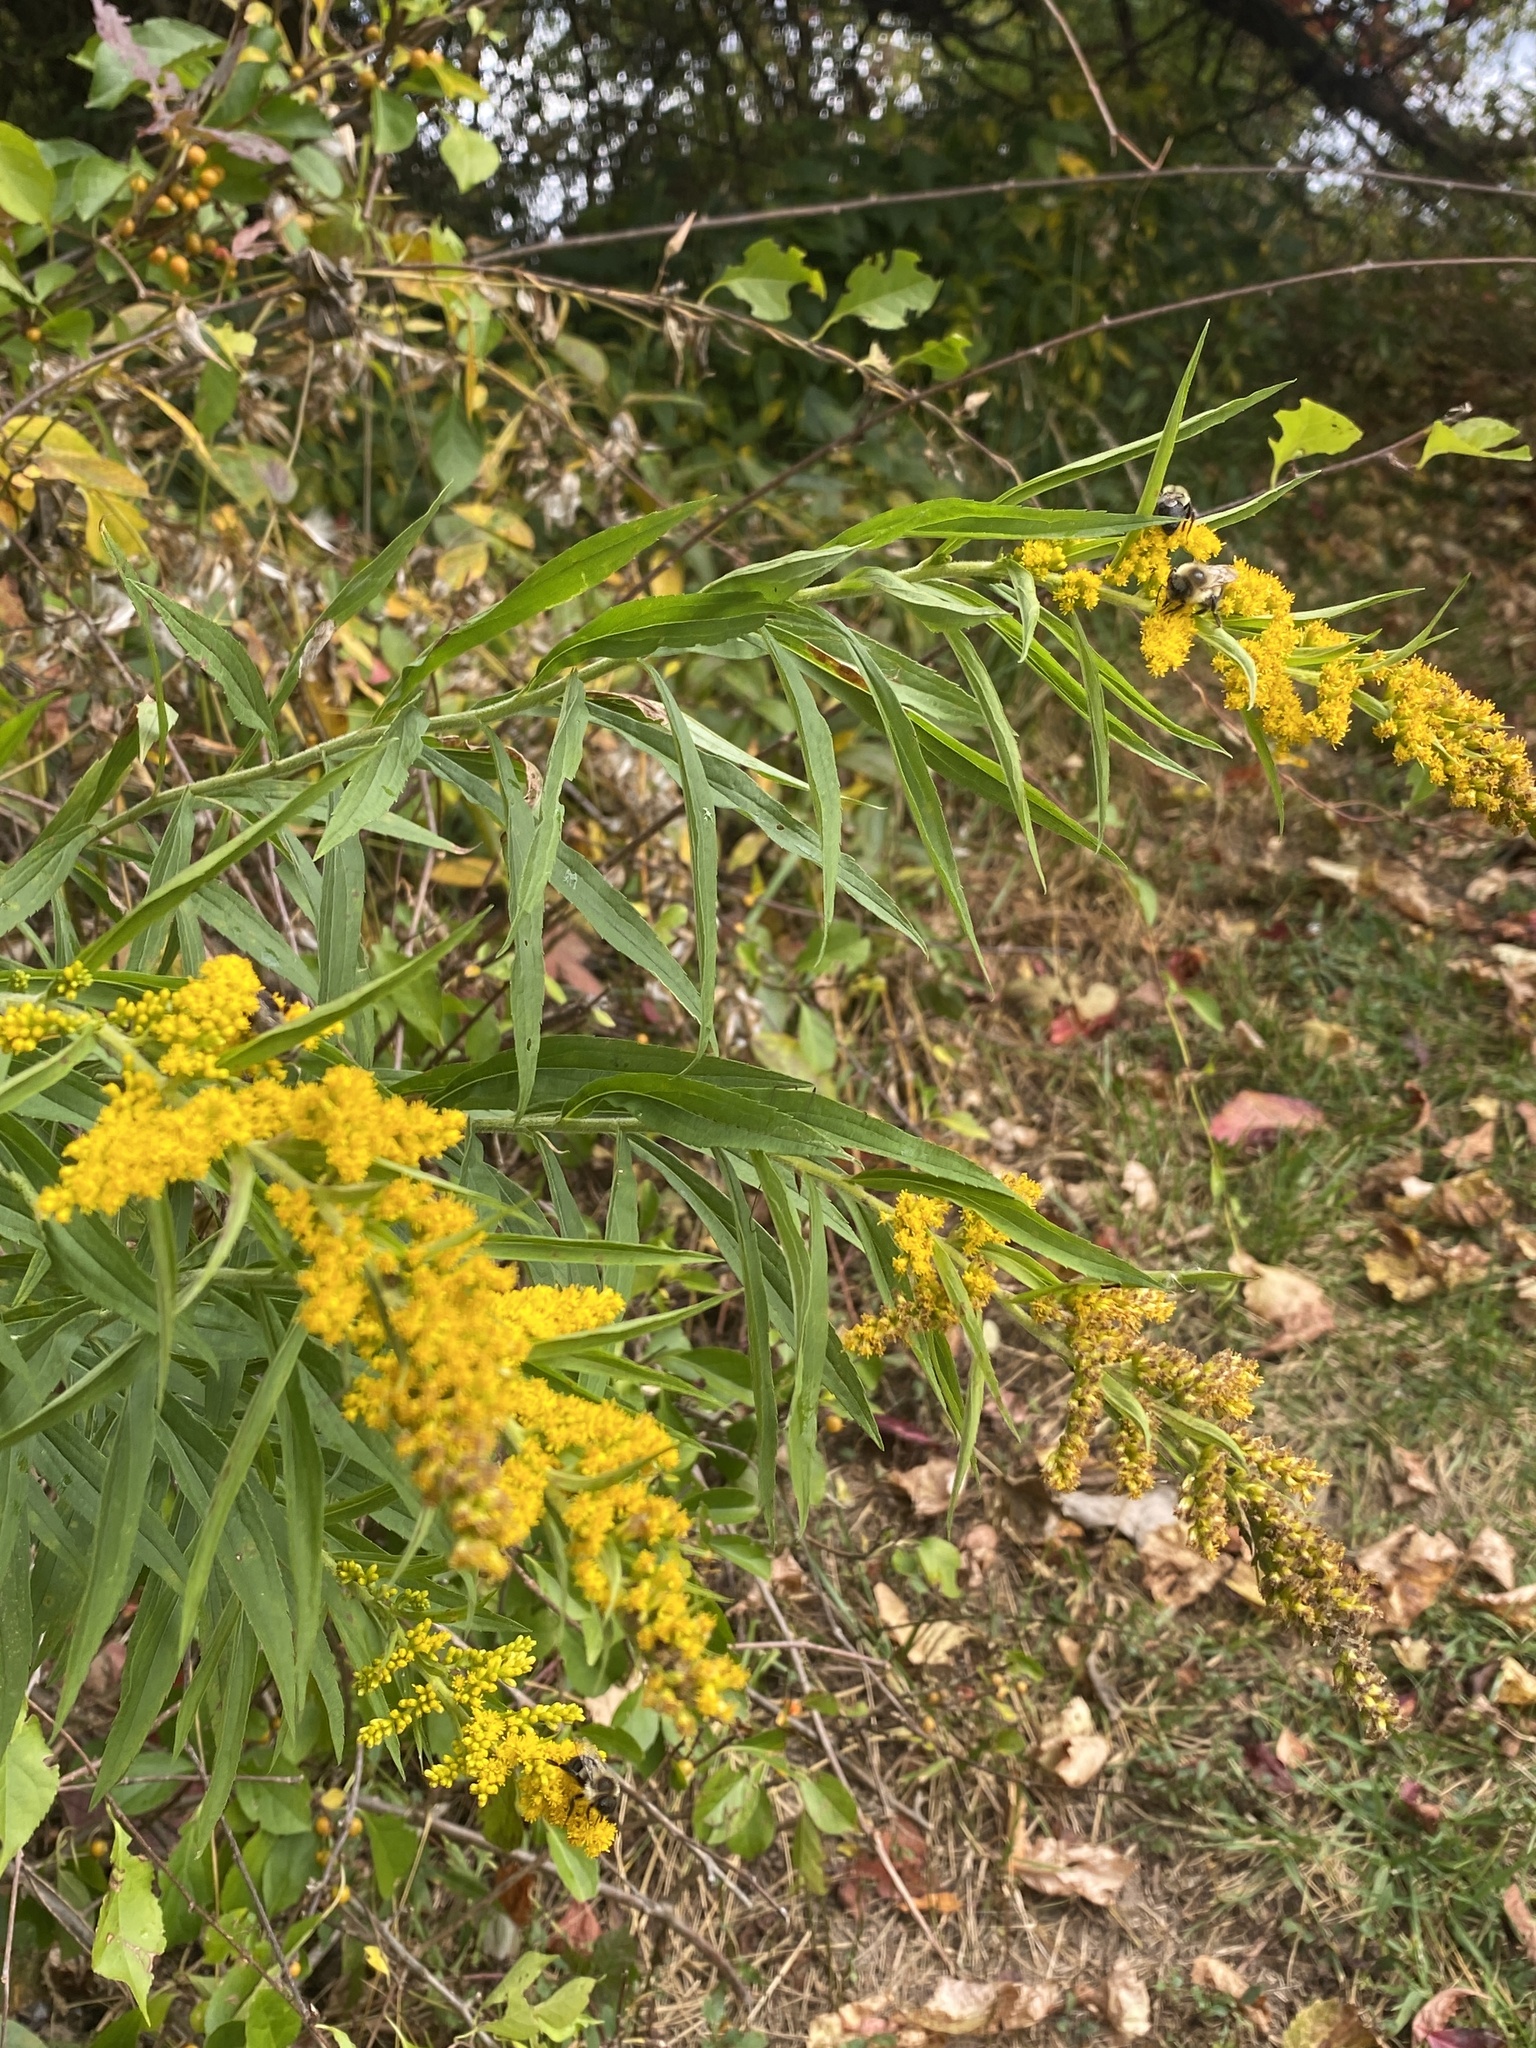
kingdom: Animalia
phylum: Arthropoda
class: Insecta
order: Hymenoptera
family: Apidae
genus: Bombus
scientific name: Bombus impatiens
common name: Common eastern bumble bee
